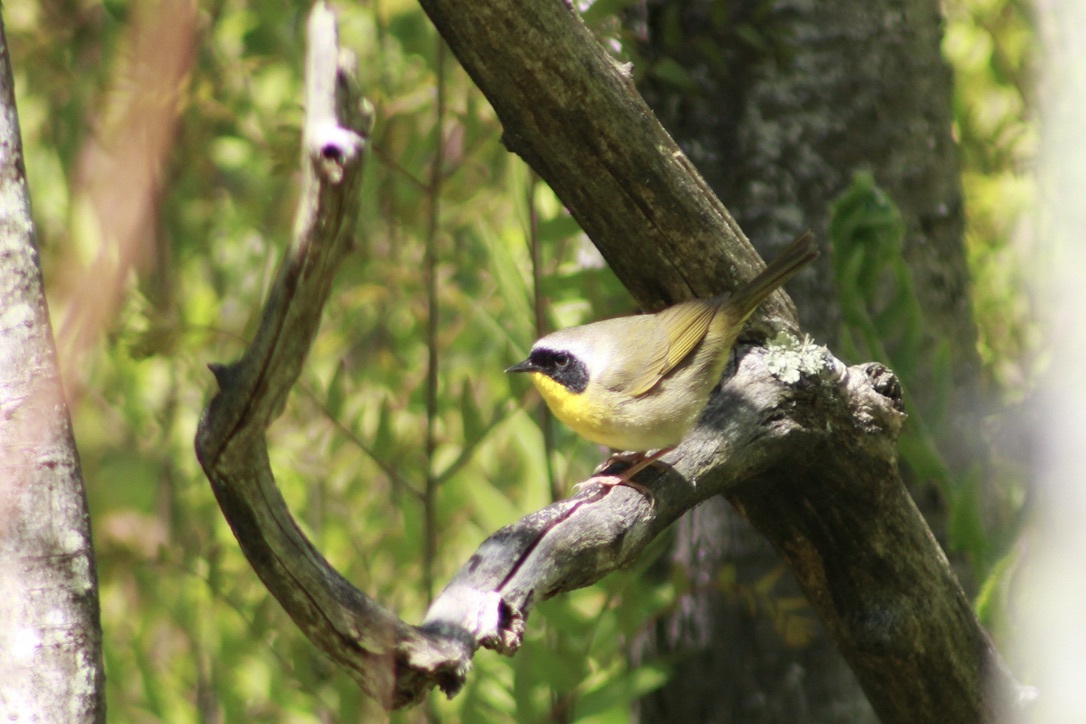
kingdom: Animalia
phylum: Chordata
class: Aves
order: Passeriformes
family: Parulidae
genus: Geothlypis
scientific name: Geothlypis trichas
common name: Common yellowthroat
